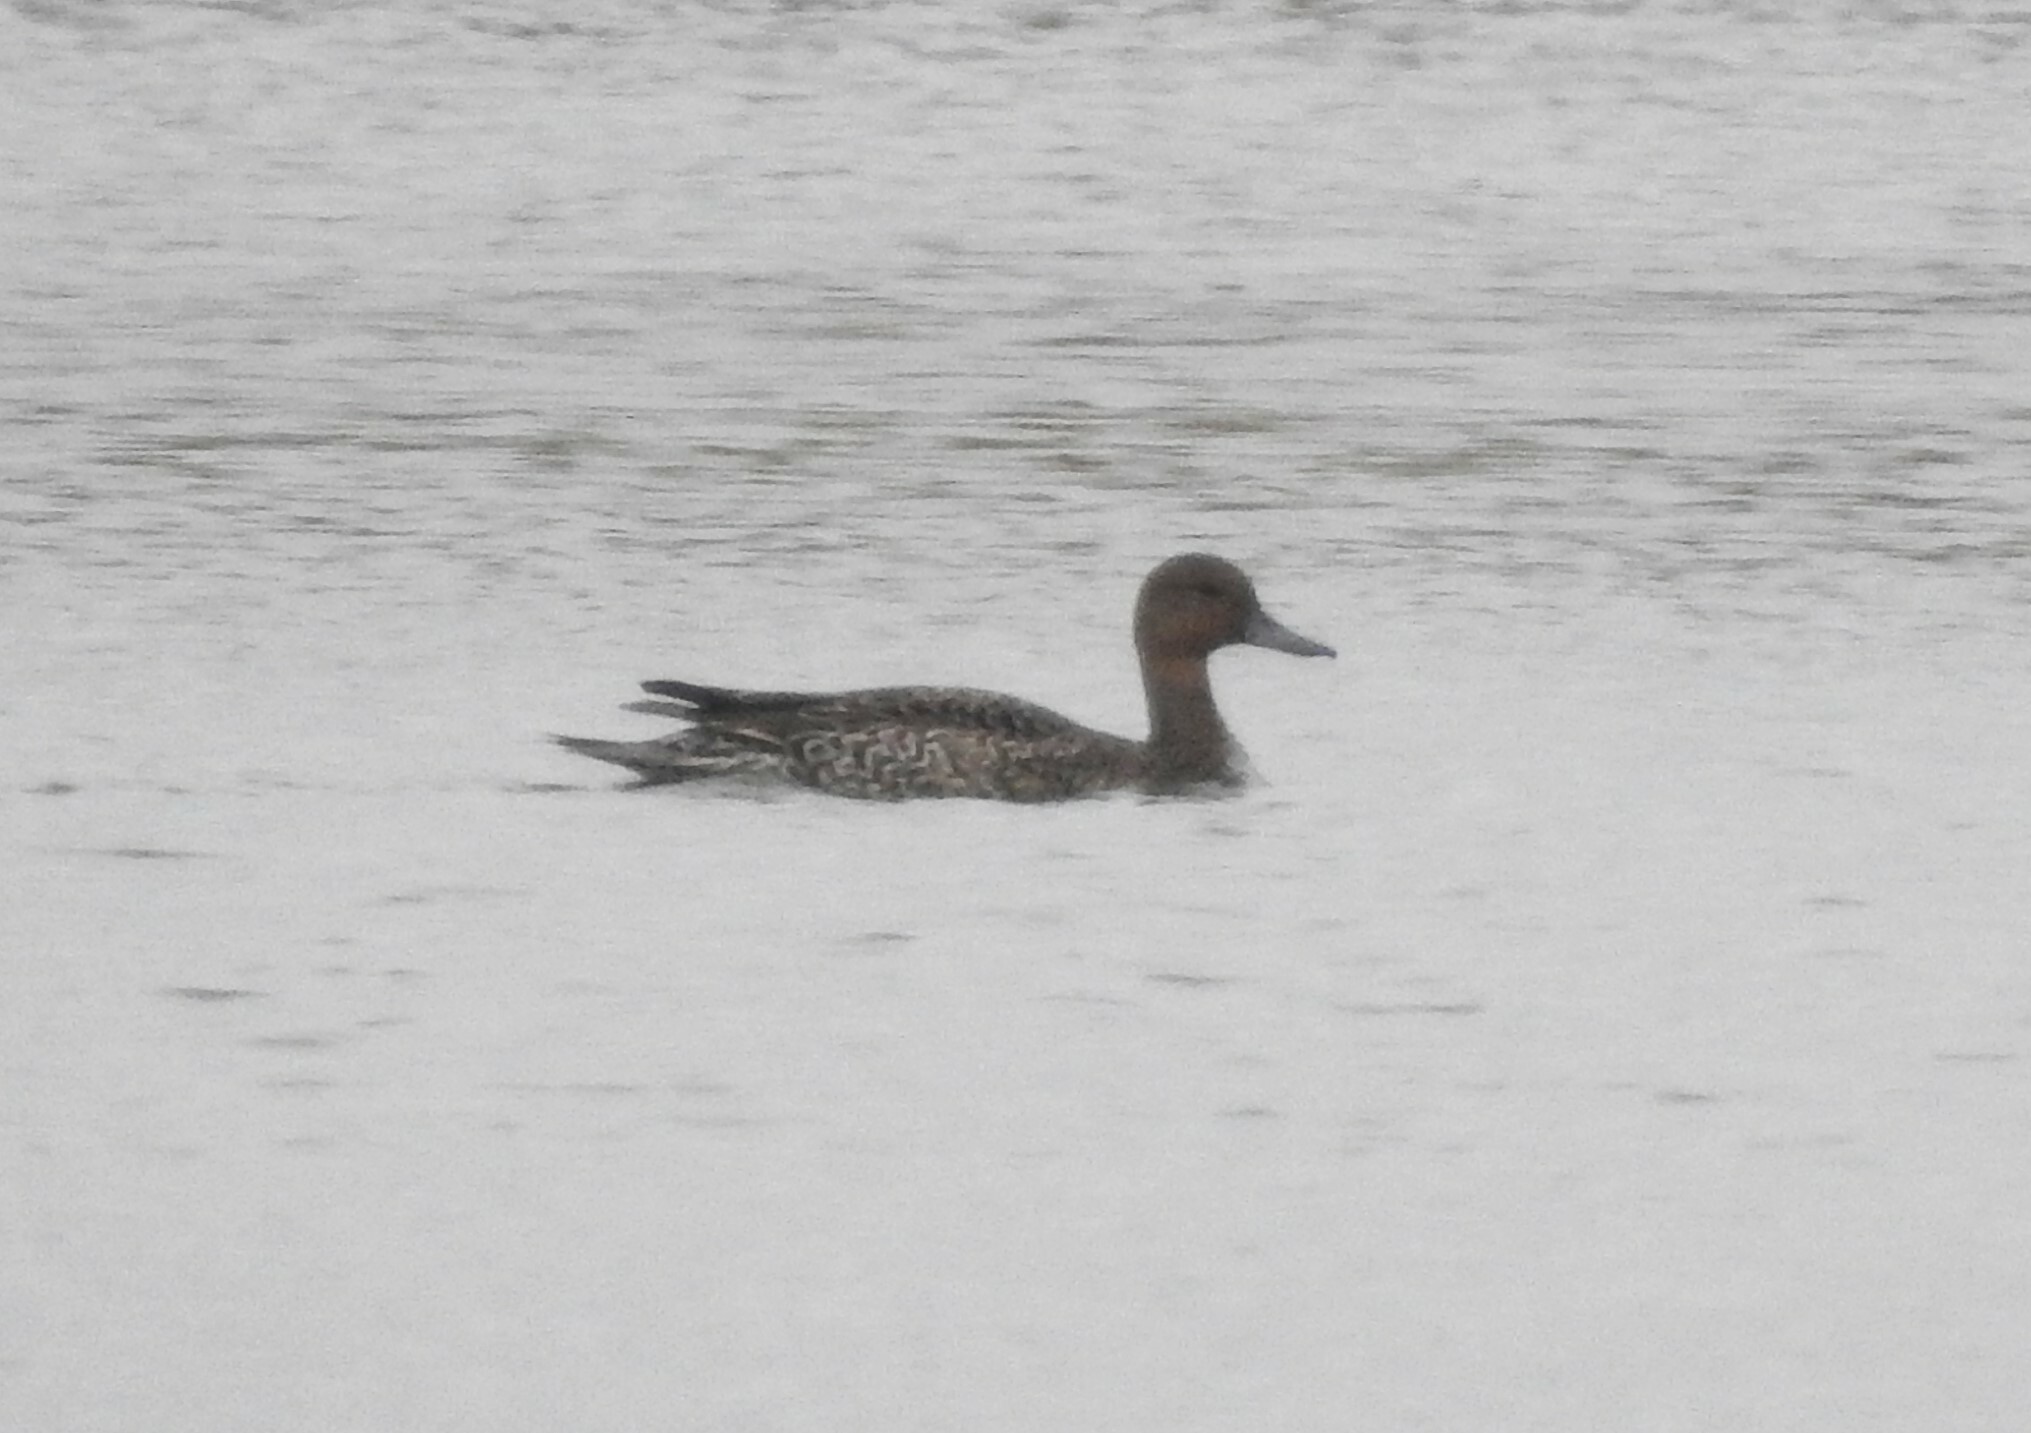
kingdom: Animalia
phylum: Chordata
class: Aves
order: Anseriformes
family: Anatidae
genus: Anas
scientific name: Anas acuta
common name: Northern pintail
